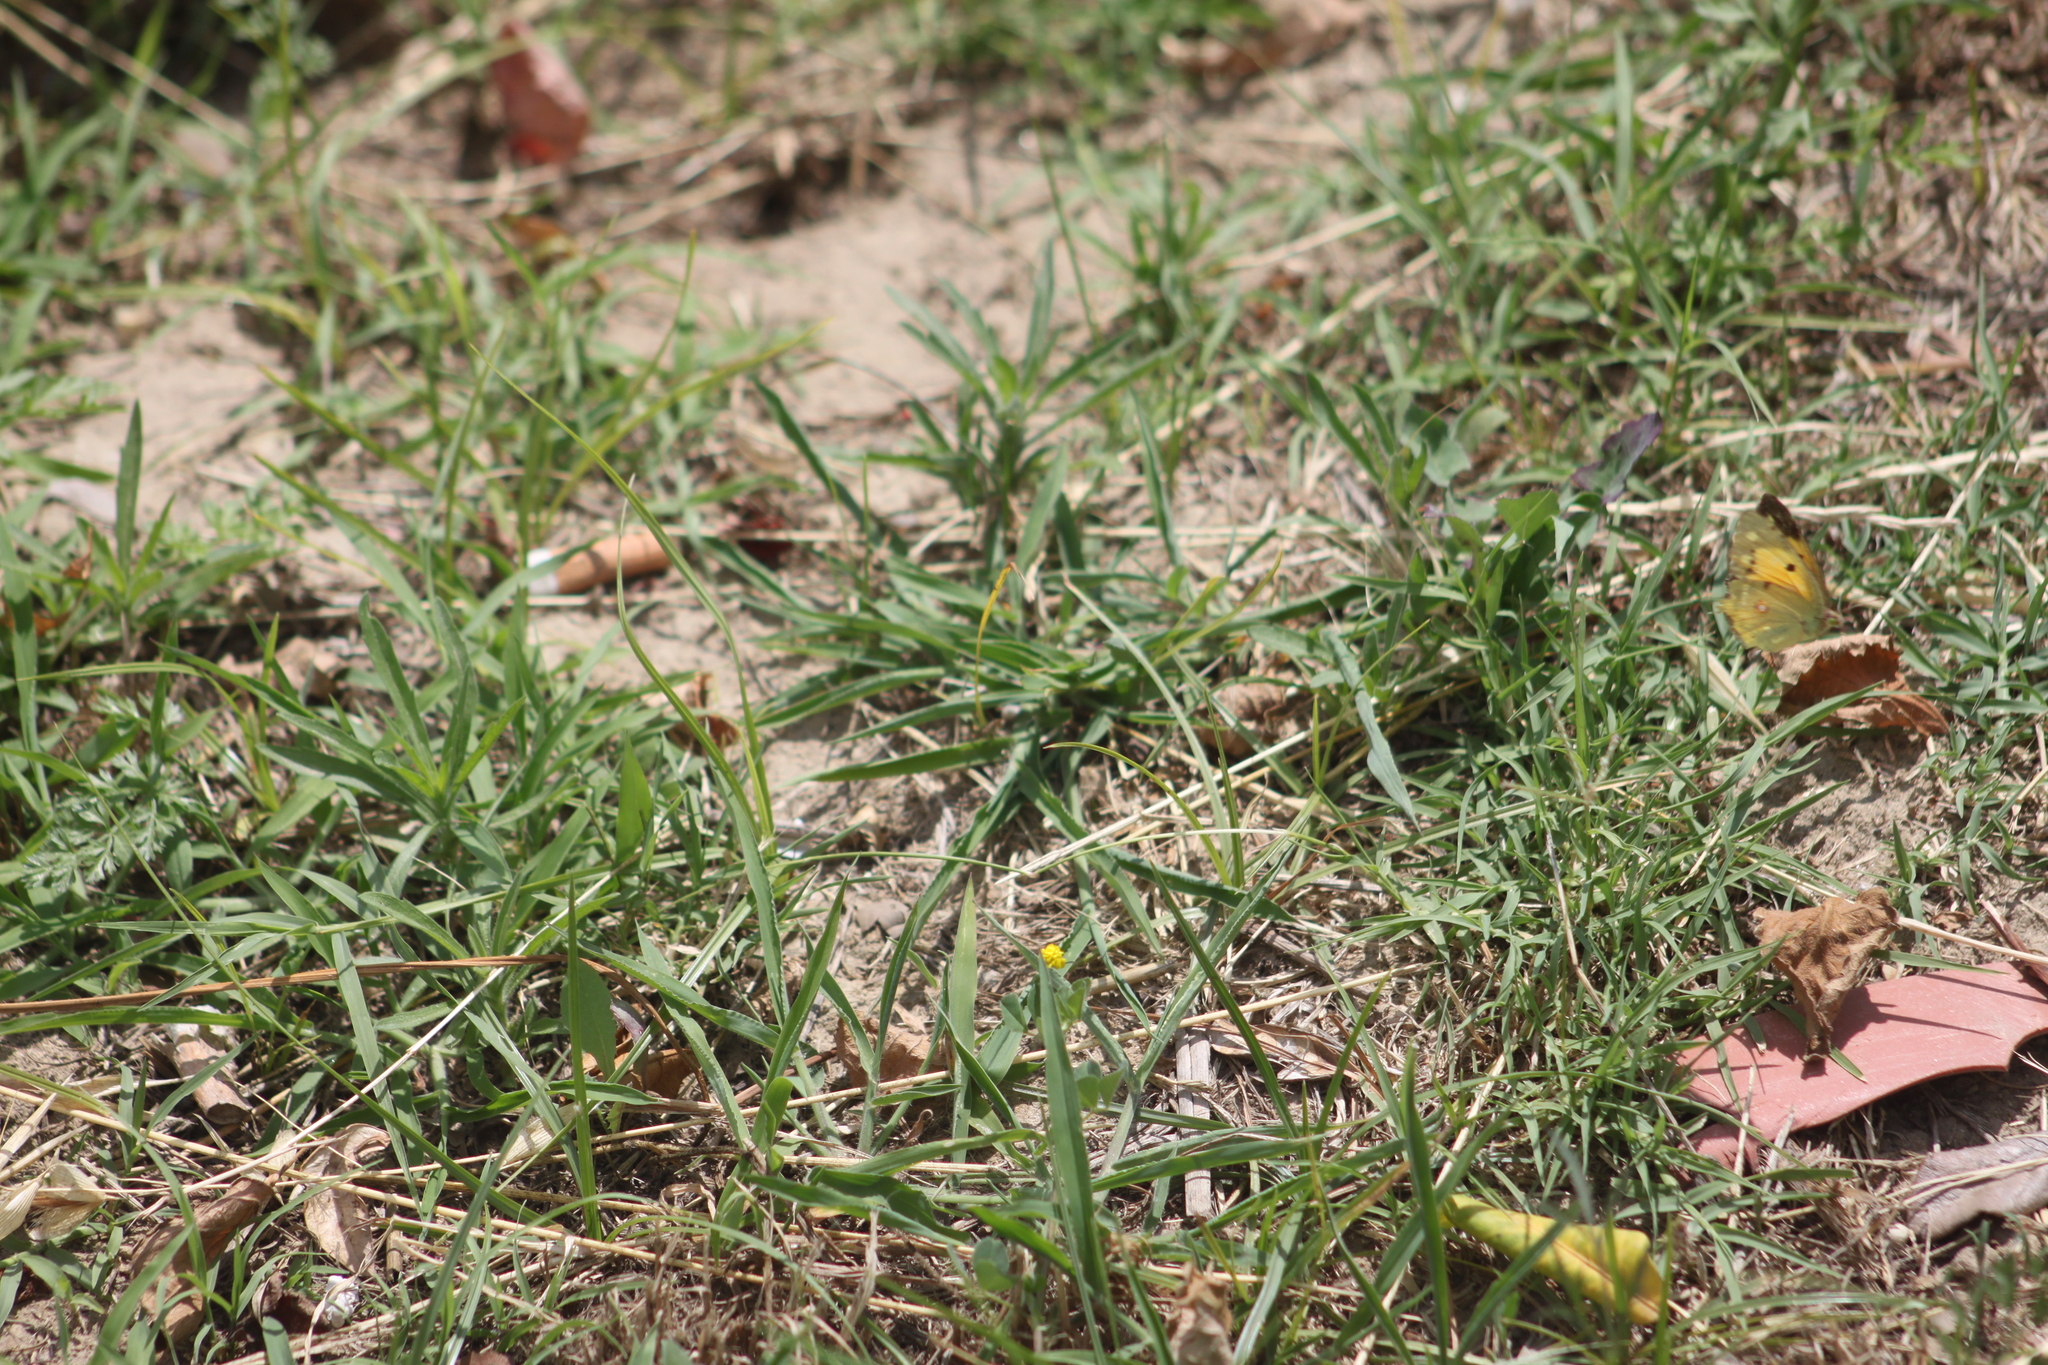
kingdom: Animalia
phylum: Arthropoda
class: Insecta
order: Lepidoptera
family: Pieridae
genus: Colias
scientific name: Colias croceus
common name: Clouded yellow
